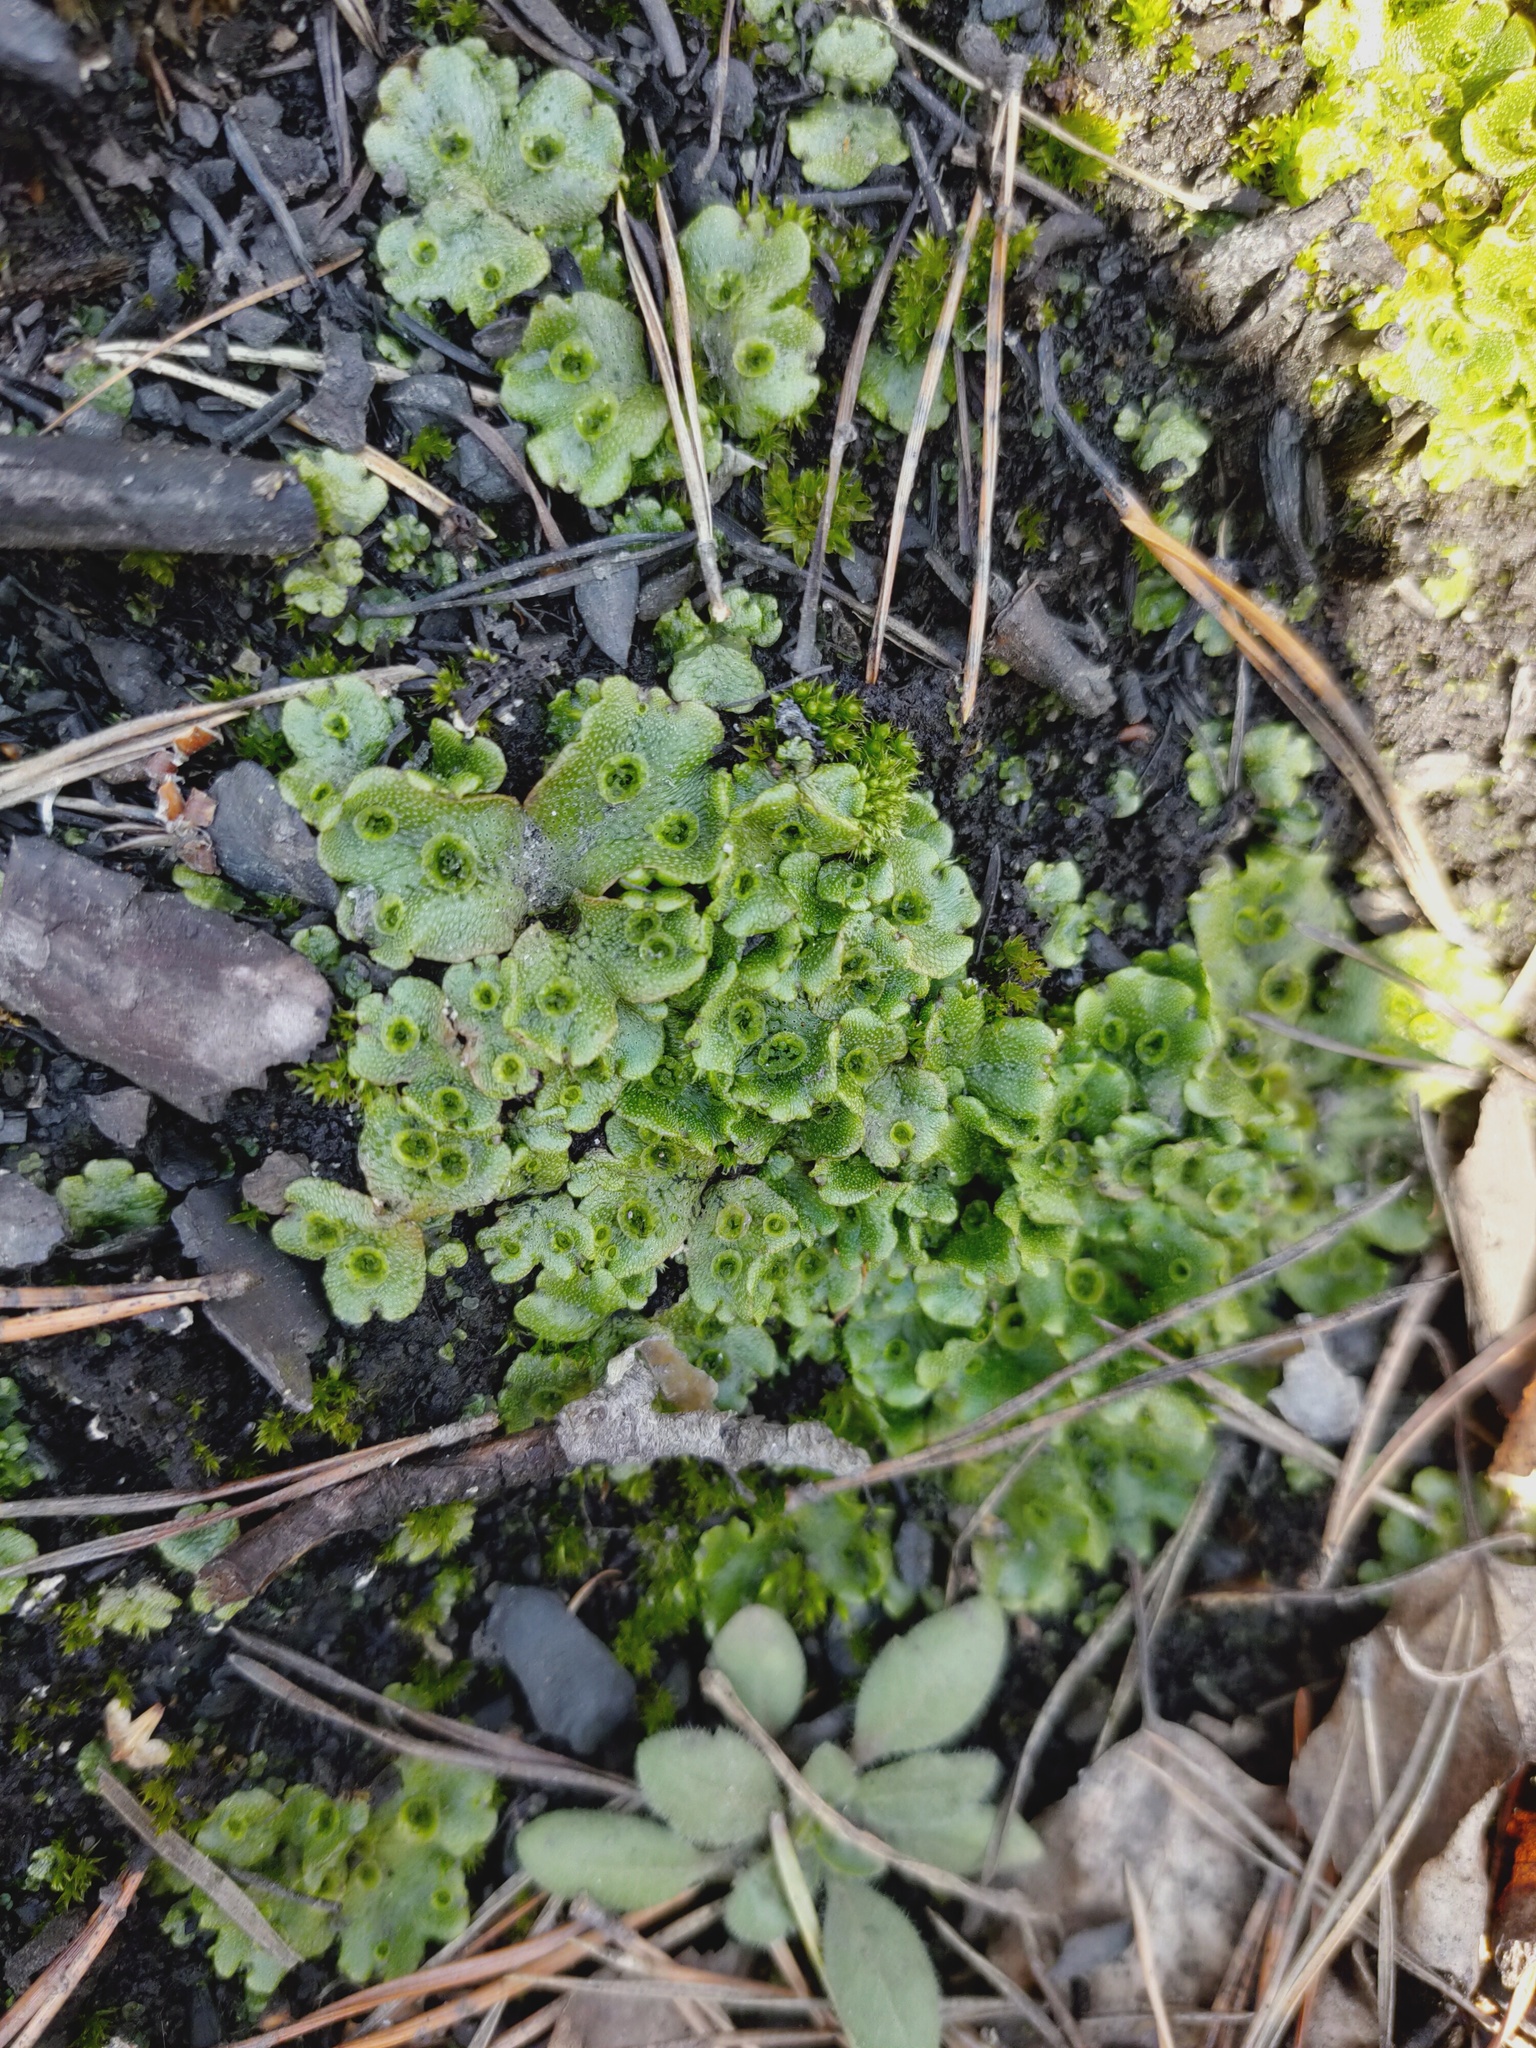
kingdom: Plantae
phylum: Marchantiophyta
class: Marchantiopsida
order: Marchantiales
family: Marchantiaceae
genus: Marchantia
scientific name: Marchantia polymorpha
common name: Common liverwort
